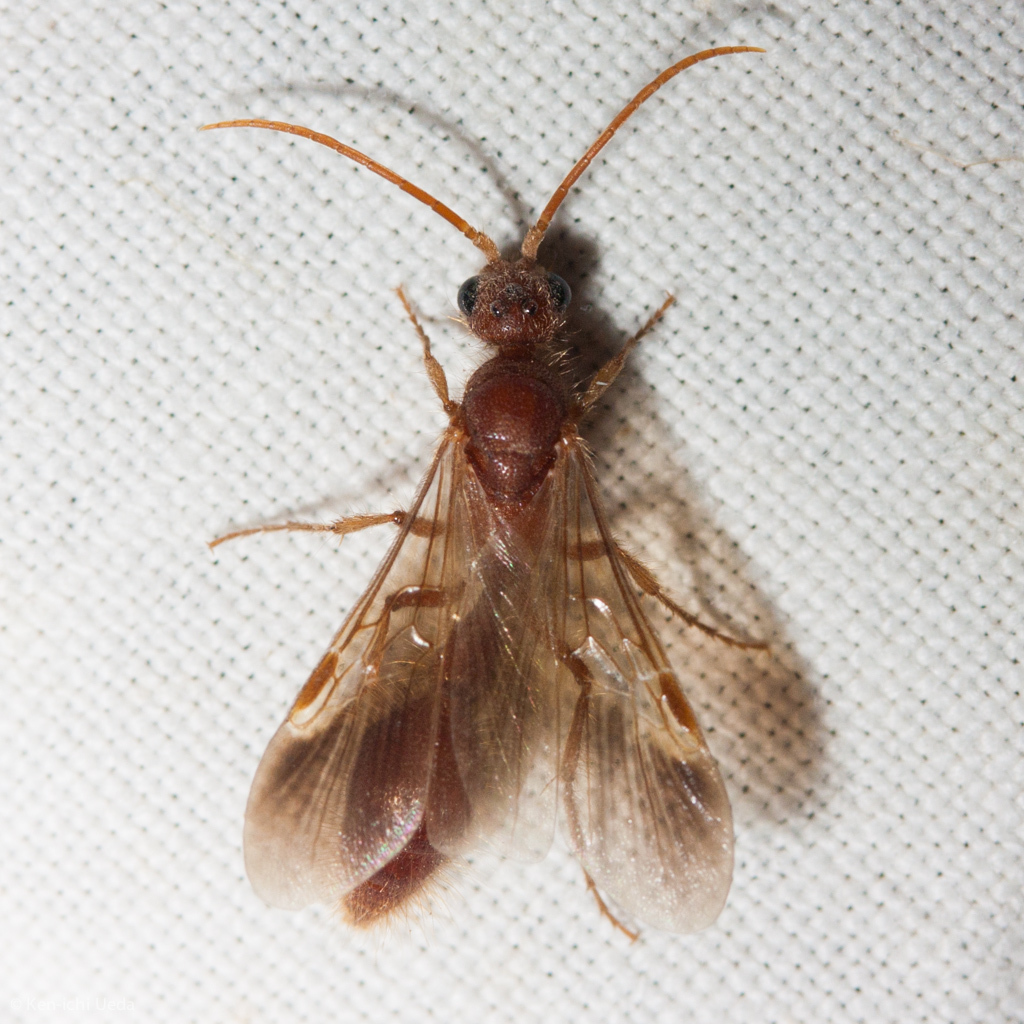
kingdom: Animalia
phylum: Arthropoda
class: Insecta
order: Hymenoptera
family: Chyphotidae
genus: Chyphotes
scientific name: Chyphotes
